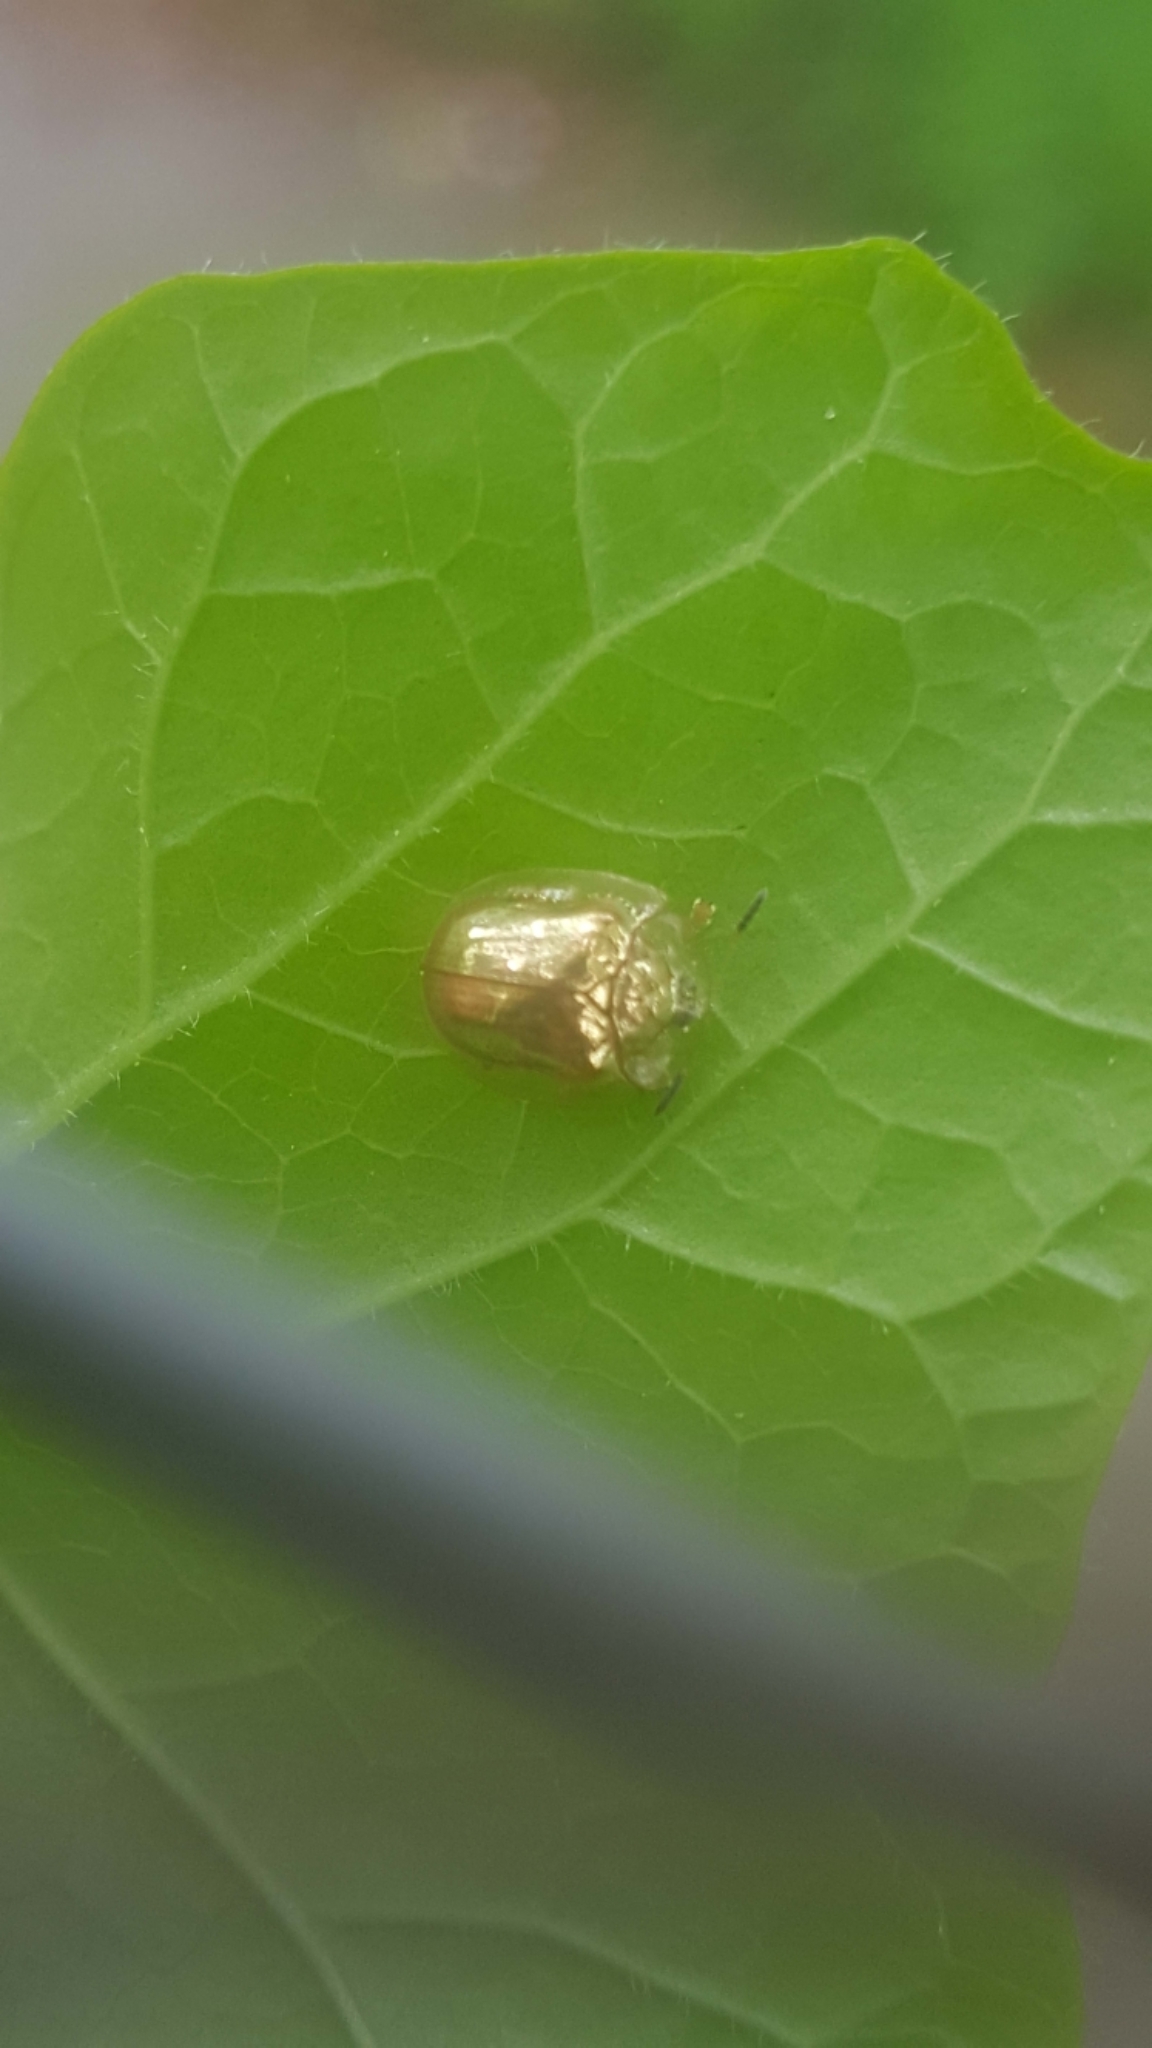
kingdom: Animalia
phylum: Arthropoda
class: Insecta
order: Coleoptera
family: Chrysomelidae
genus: Charidotella
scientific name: Charidotella sexpunctata
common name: Golden tortoise beetle
